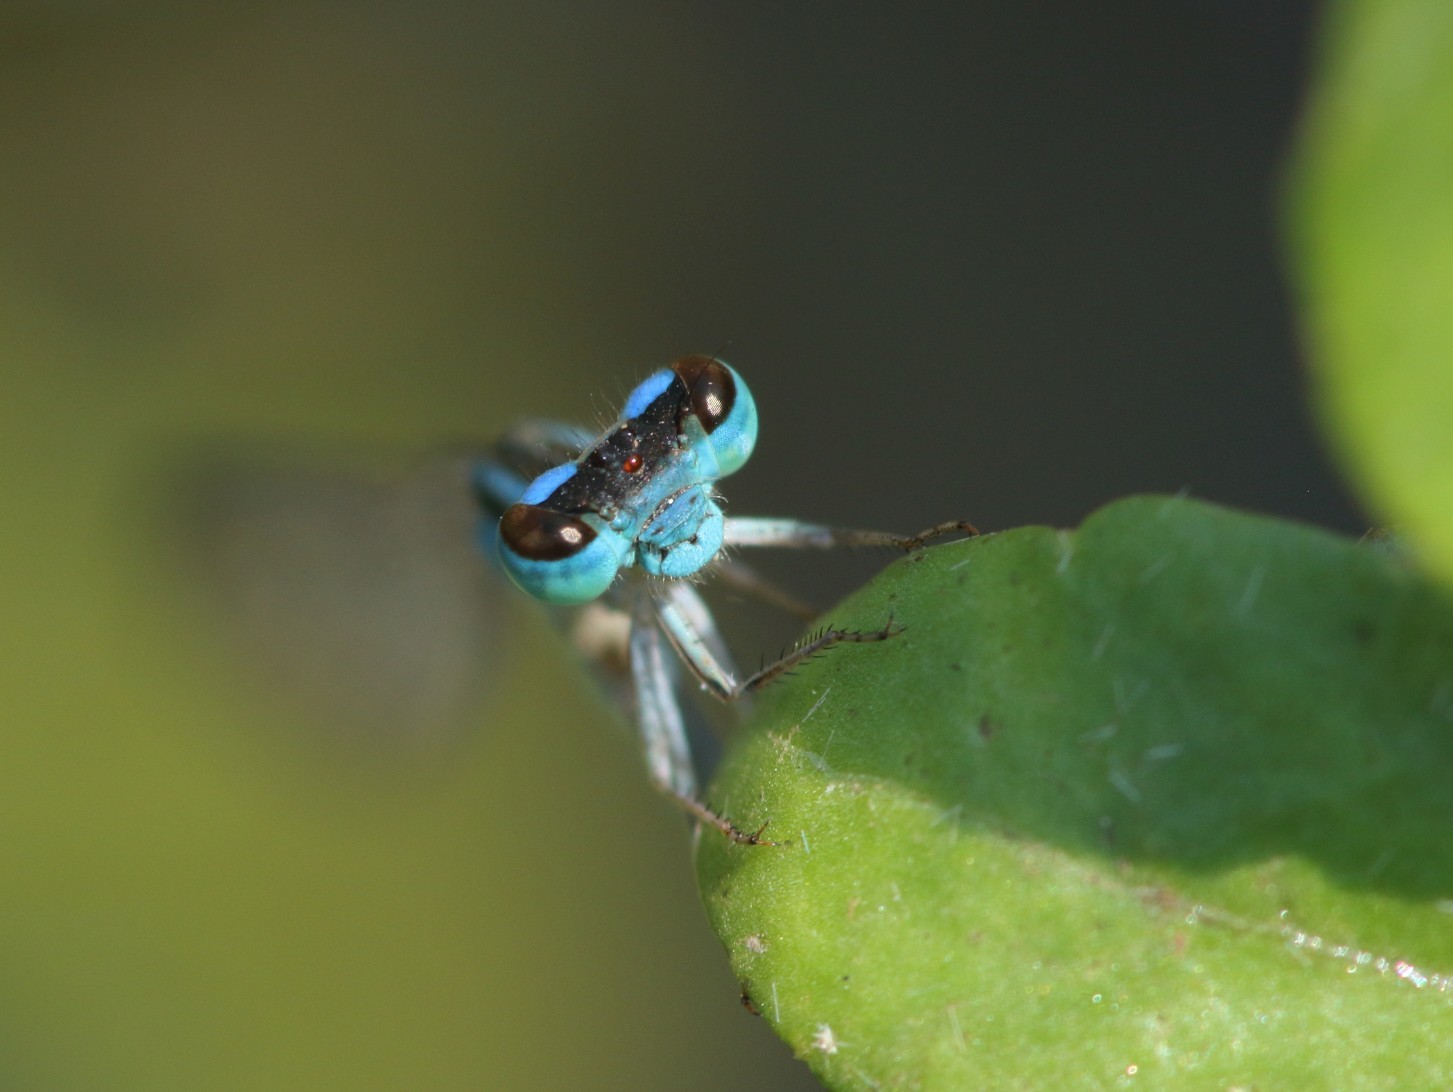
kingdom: Animalia
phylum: Arthropoda
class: Insecta
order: Odonata
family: Coenagrionidae
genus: Africallagma
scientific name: Africallagma fractum
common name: Slender bluet
